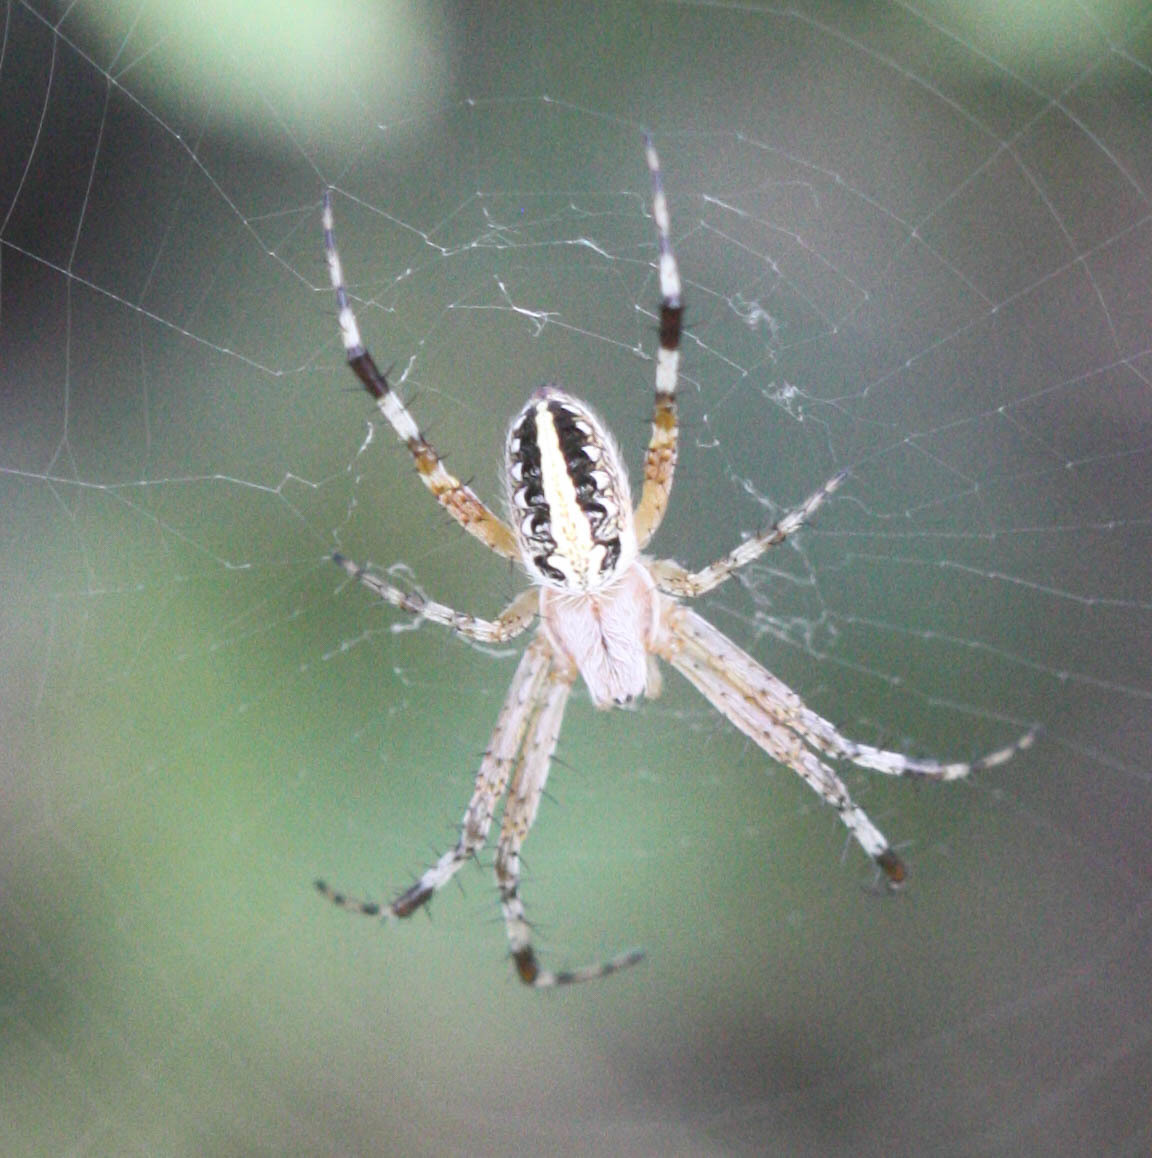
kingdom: Animalia
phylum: Arthropoda
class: Arachnida
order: Araneae
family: Araneidae
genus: Neoscona
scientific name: Neoscona oaxacensis
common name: Orb weavers
